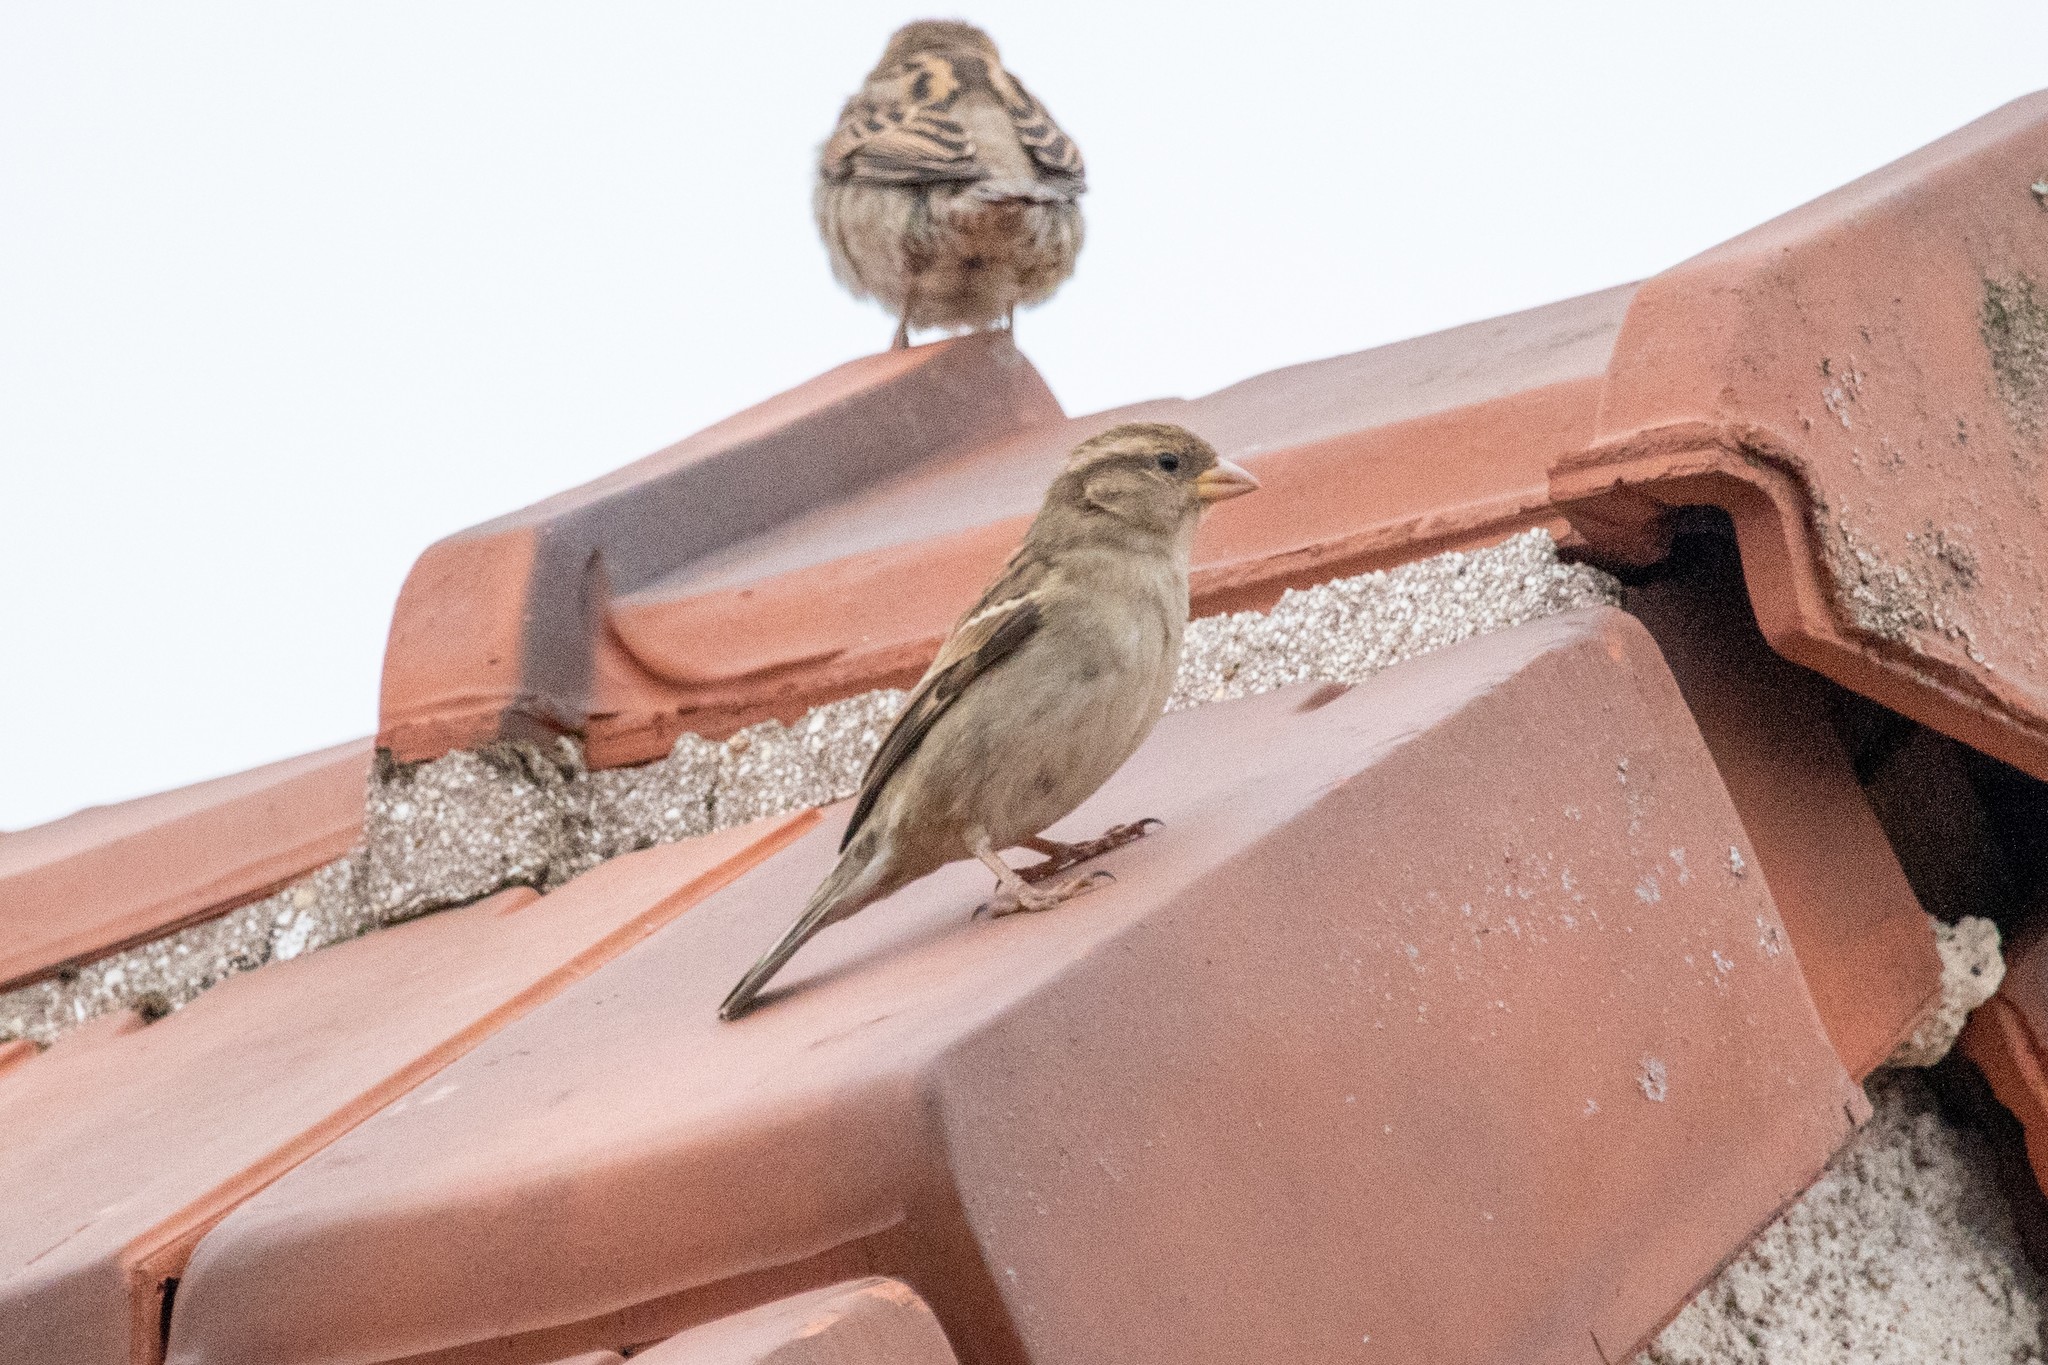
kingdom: Animalia
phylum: Chordata
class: Aves
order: Passeriformes
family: Passeridae
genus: Passer
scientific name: Passer domesticus
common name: House sparrow
